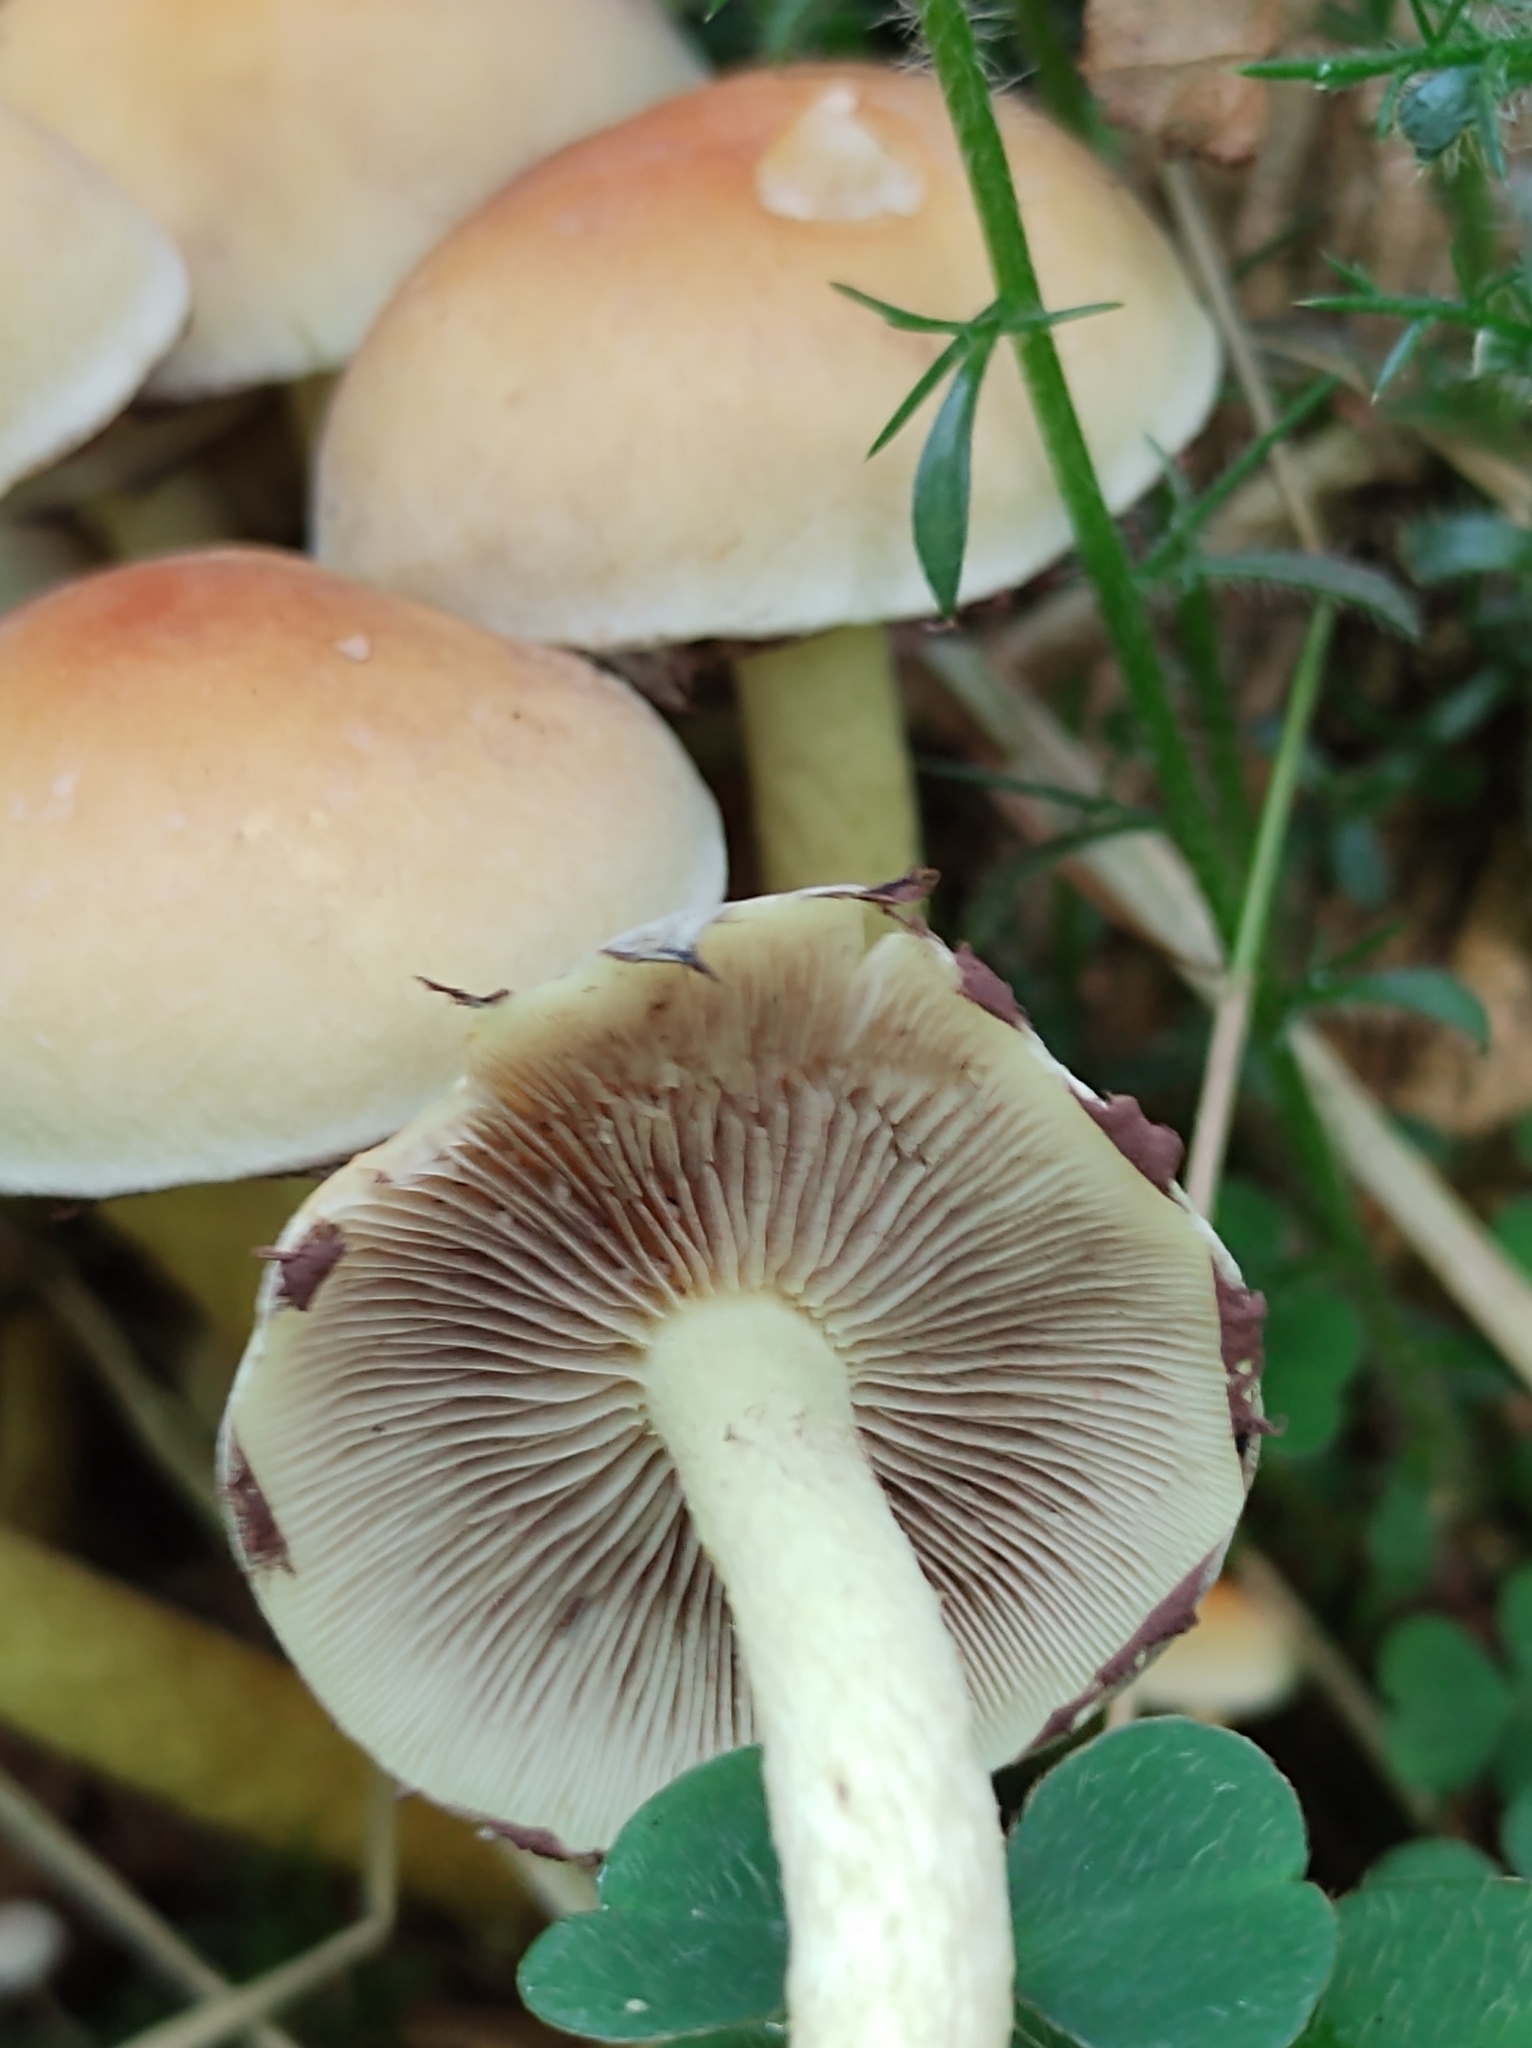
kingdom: Fungi
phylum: Basidiomycota
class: Agaricomycetes
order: Agaricales
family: Strophariaceae
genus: Hypholoma
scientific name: Hypholoma fasciculare
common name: Sulphur tuft
